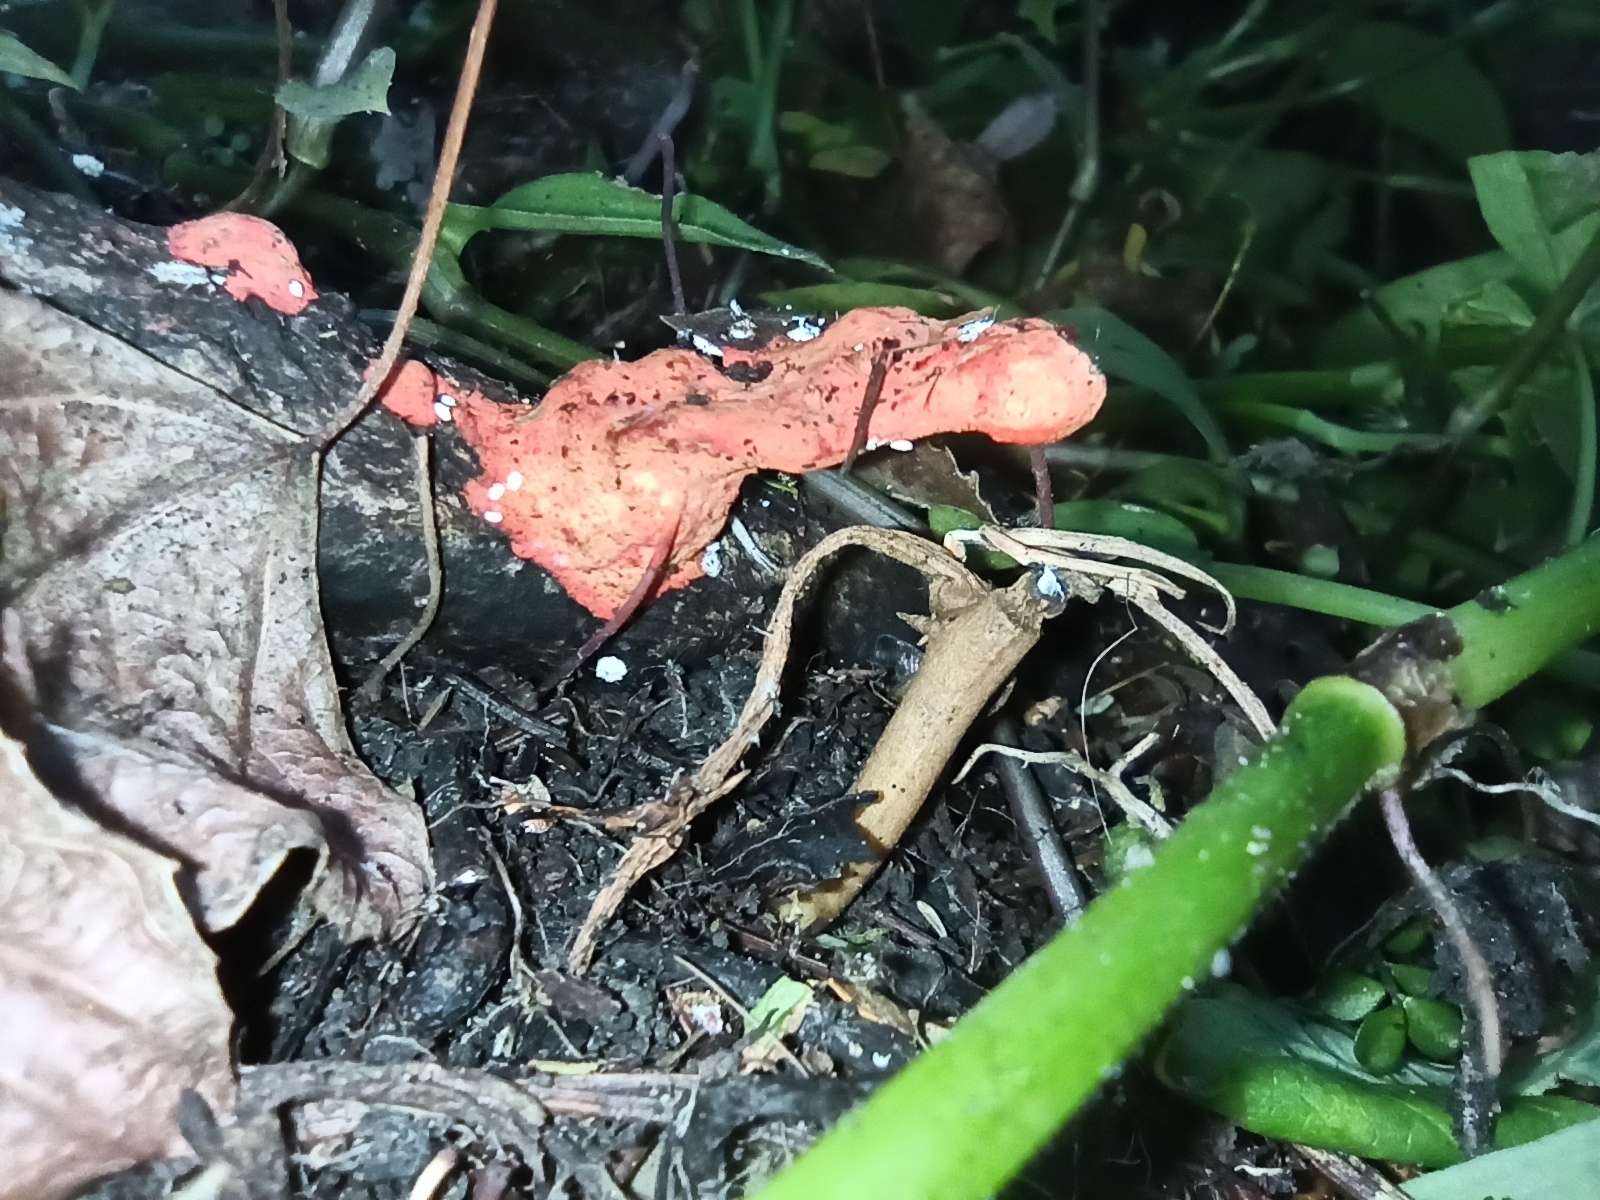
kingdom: Fungi
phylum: Basidiomycota
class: Agaricomycetes
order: Polyporales
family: Polyporaceae
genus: Trametes
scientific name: Trametes coccinea
